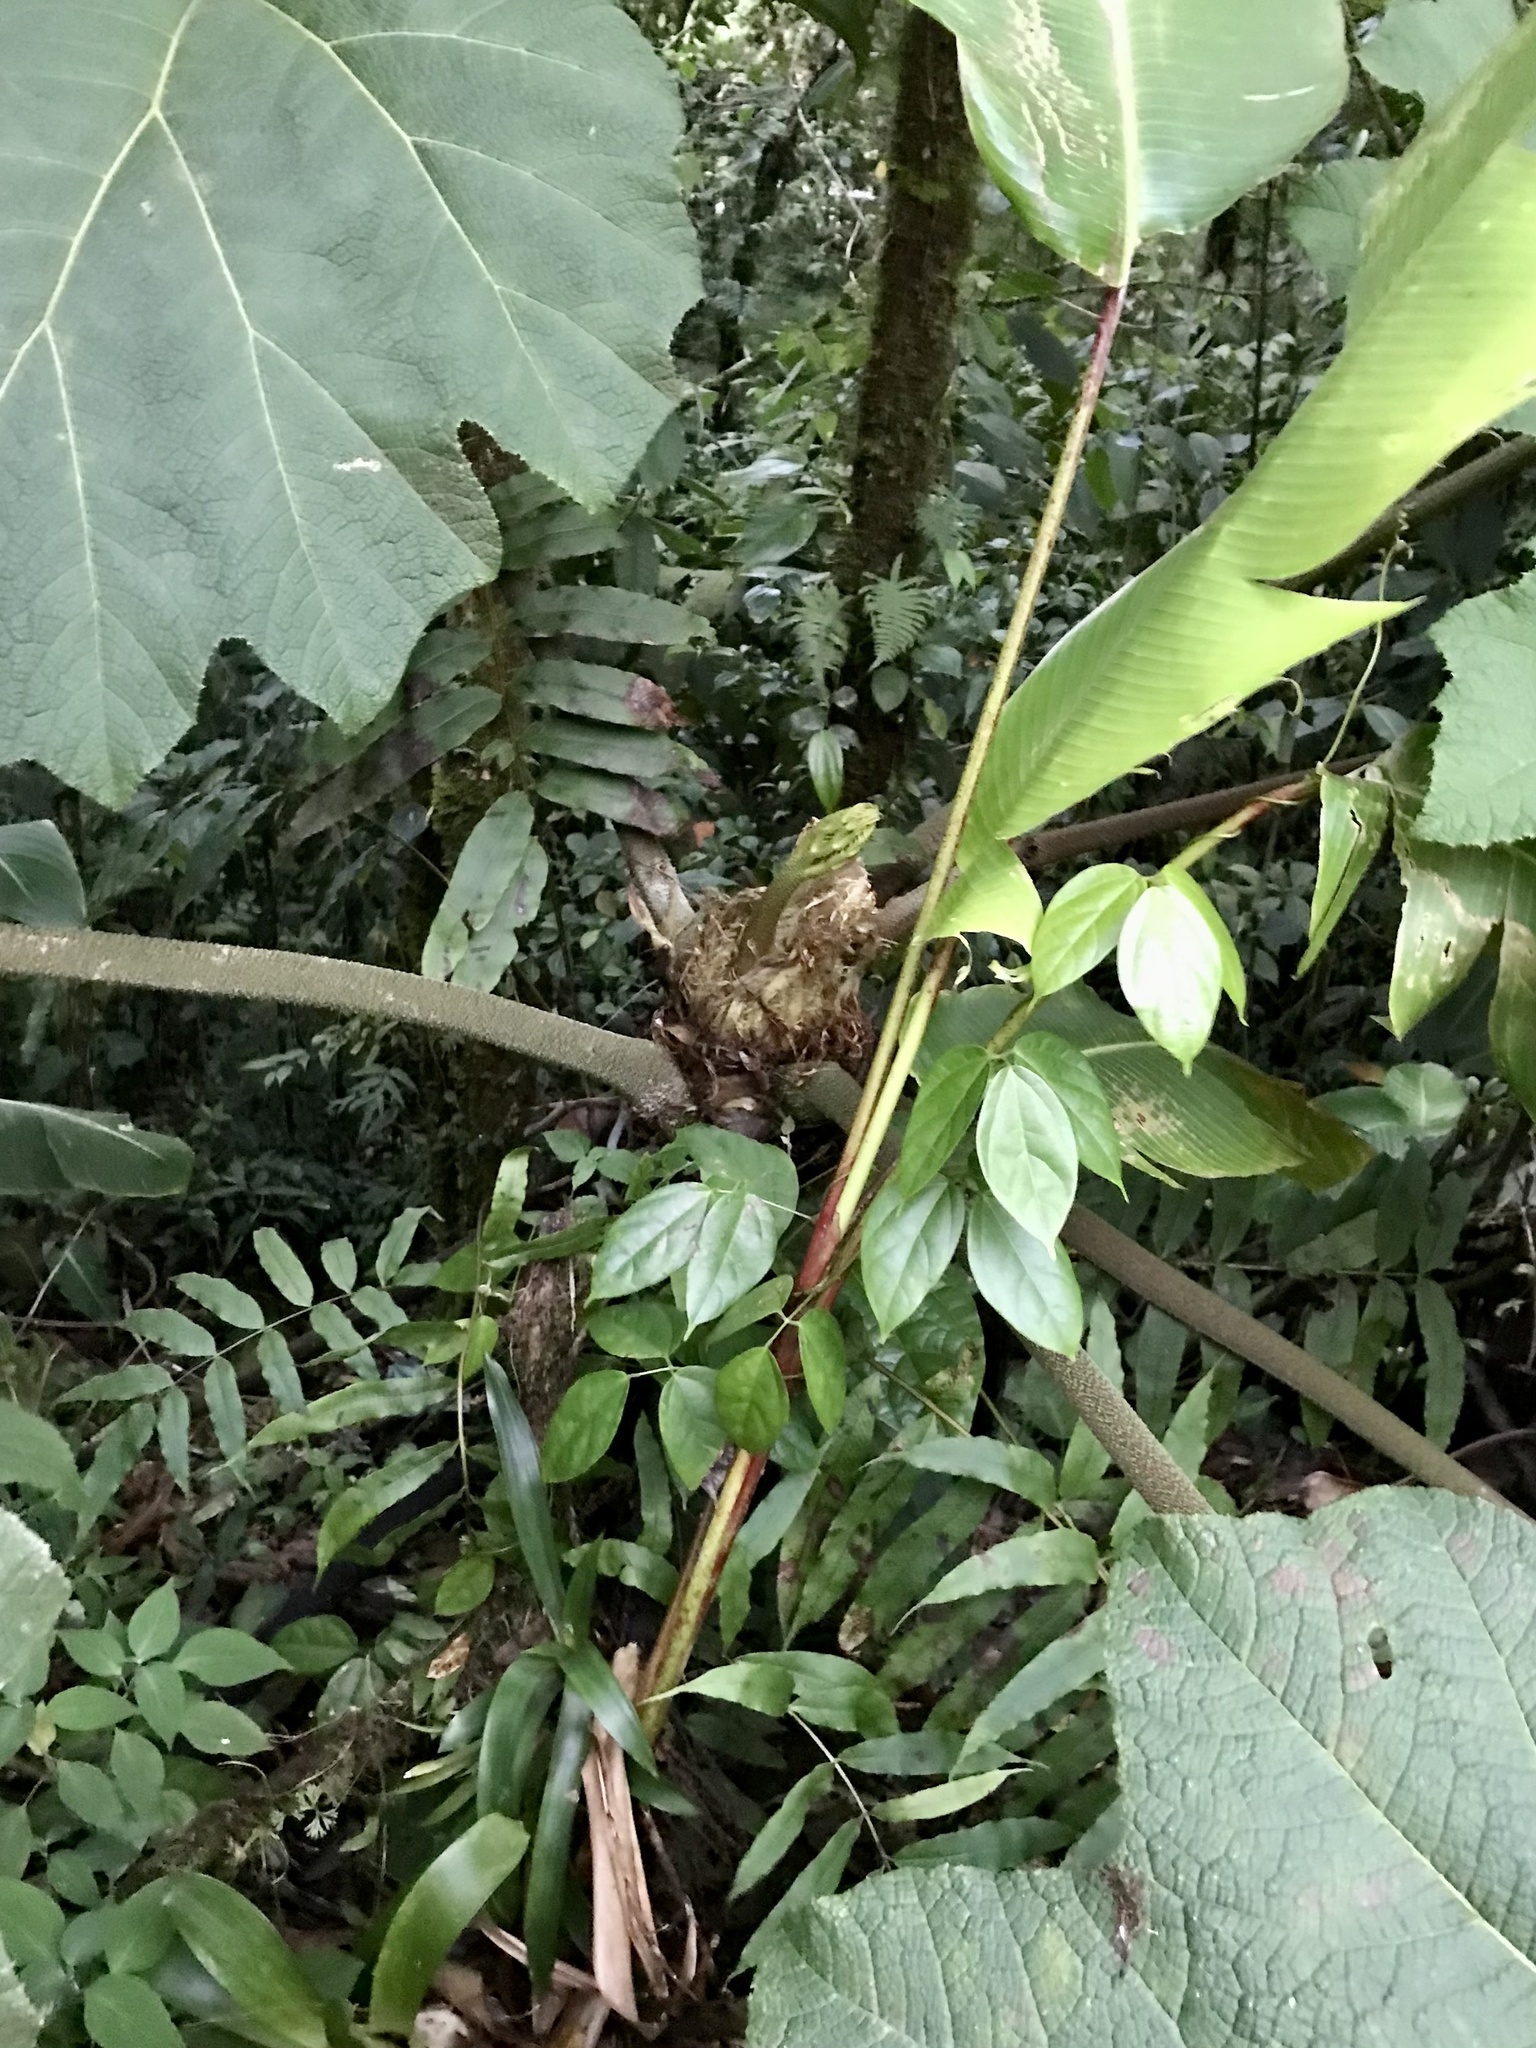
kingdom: Plantae
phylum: Tracheophyta
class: Magnoliopsida
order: Gunnerales
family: Gunneraceae
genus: Gunnera
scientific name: Gunnera insignis
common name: Poorman's umbrella
